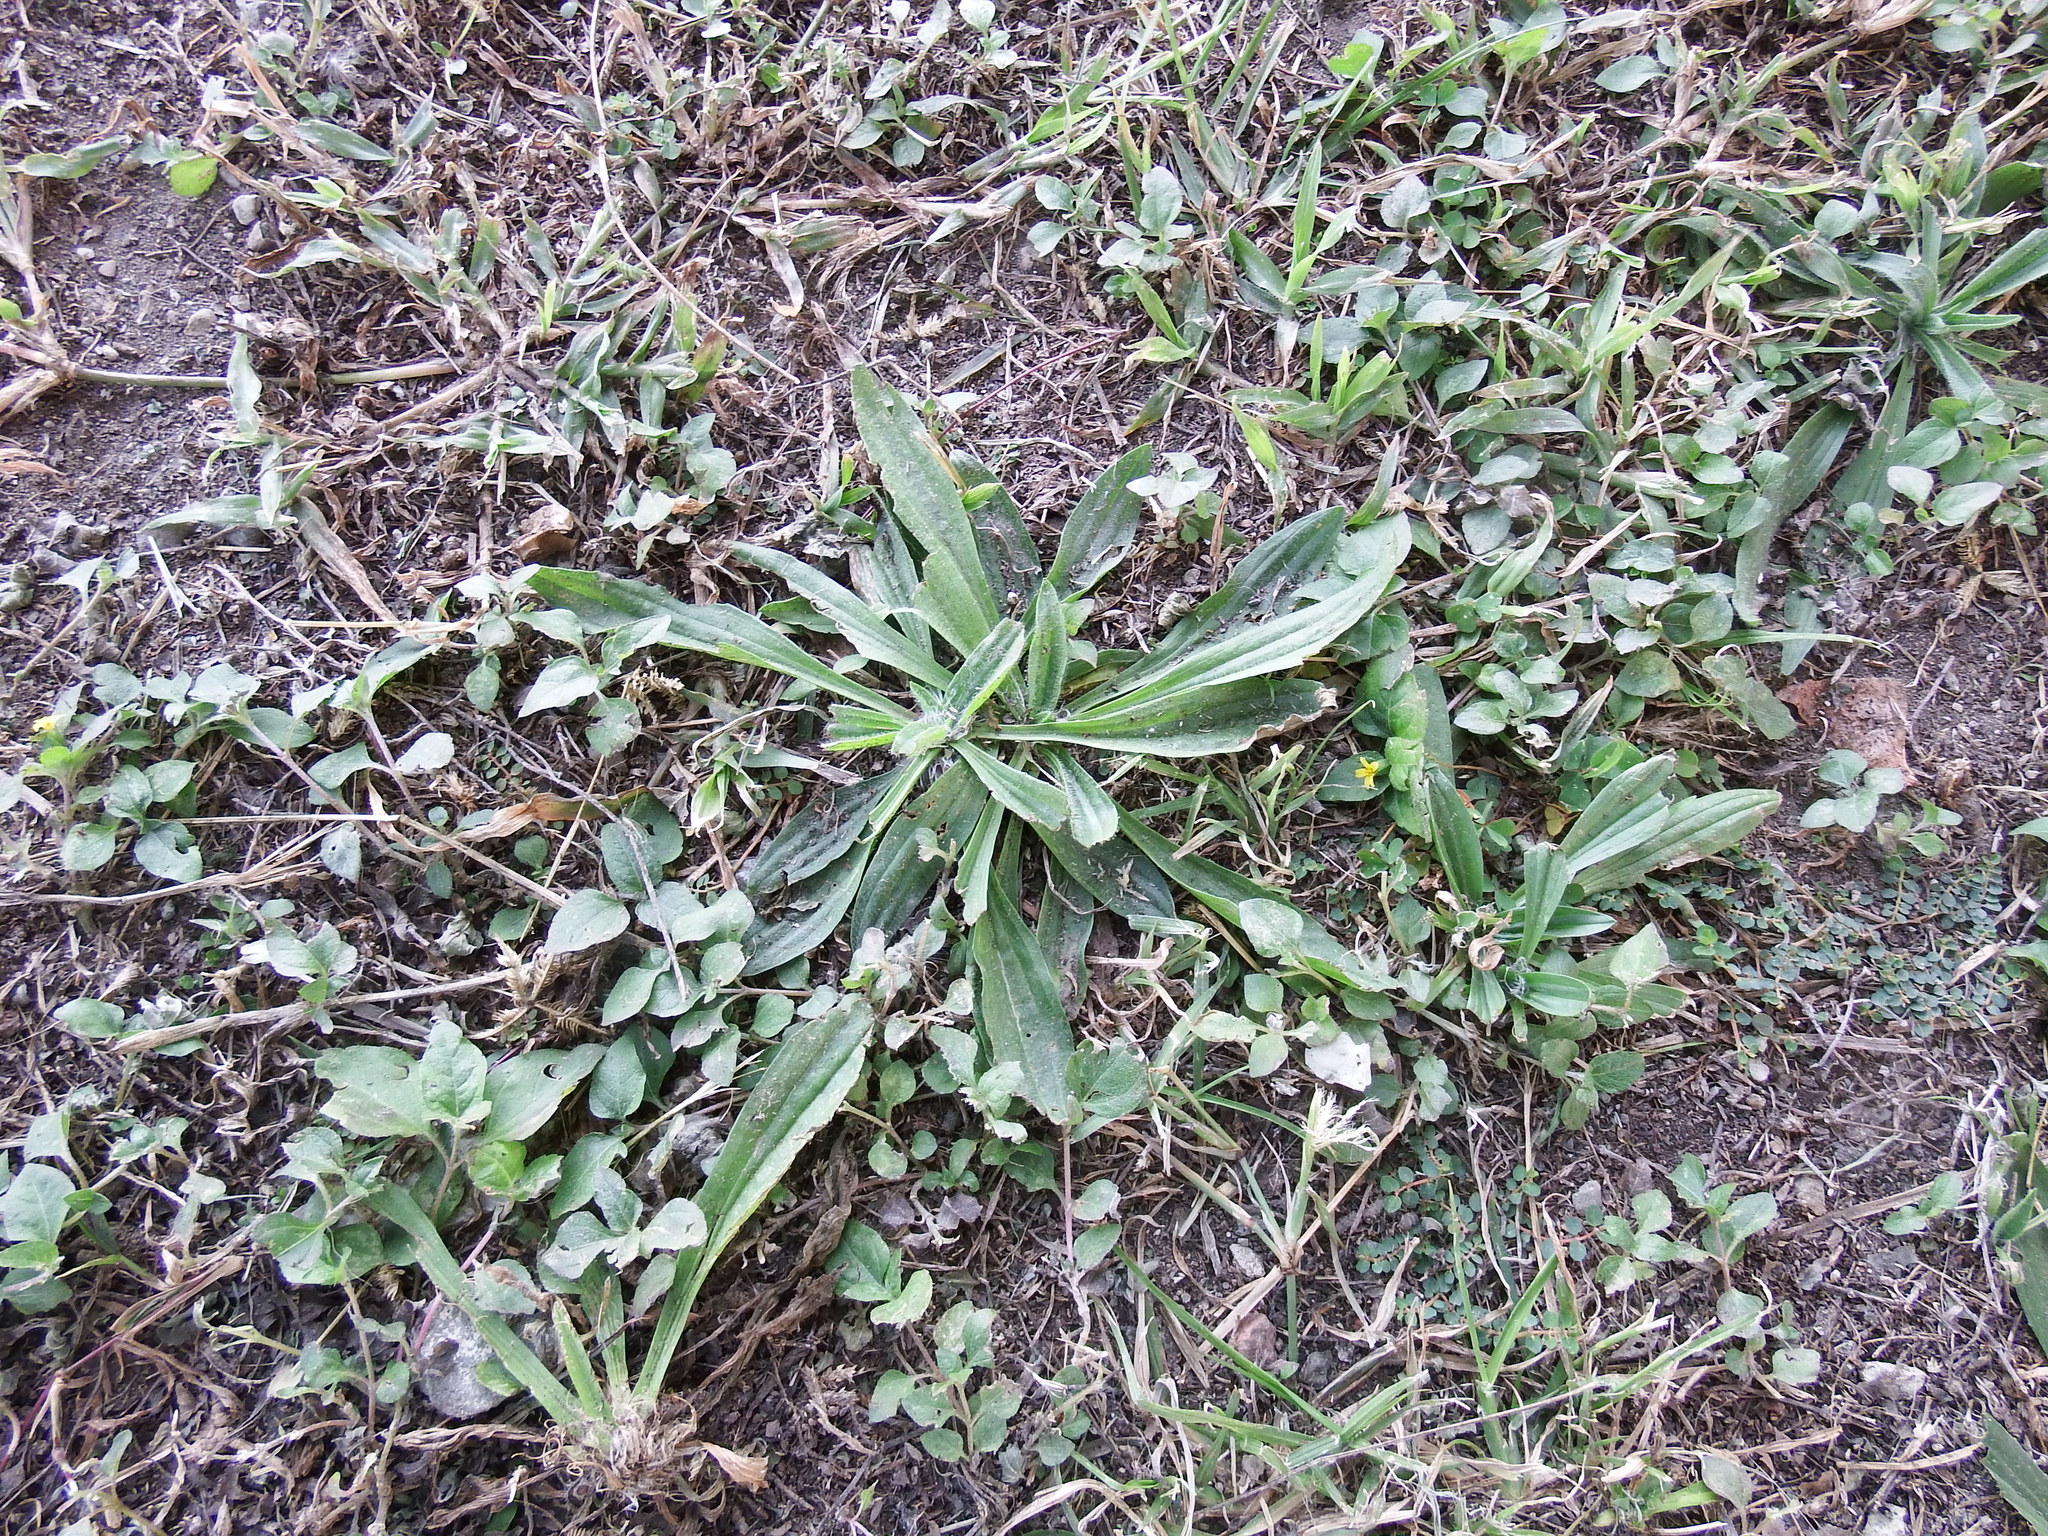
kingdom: Plantae
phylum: Tracheophyta
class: Magnoliopsida
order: Lamiales
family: Plantaginaceae
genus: Plantago
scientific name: Plantago lanceolata
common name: Ribwort plantain
